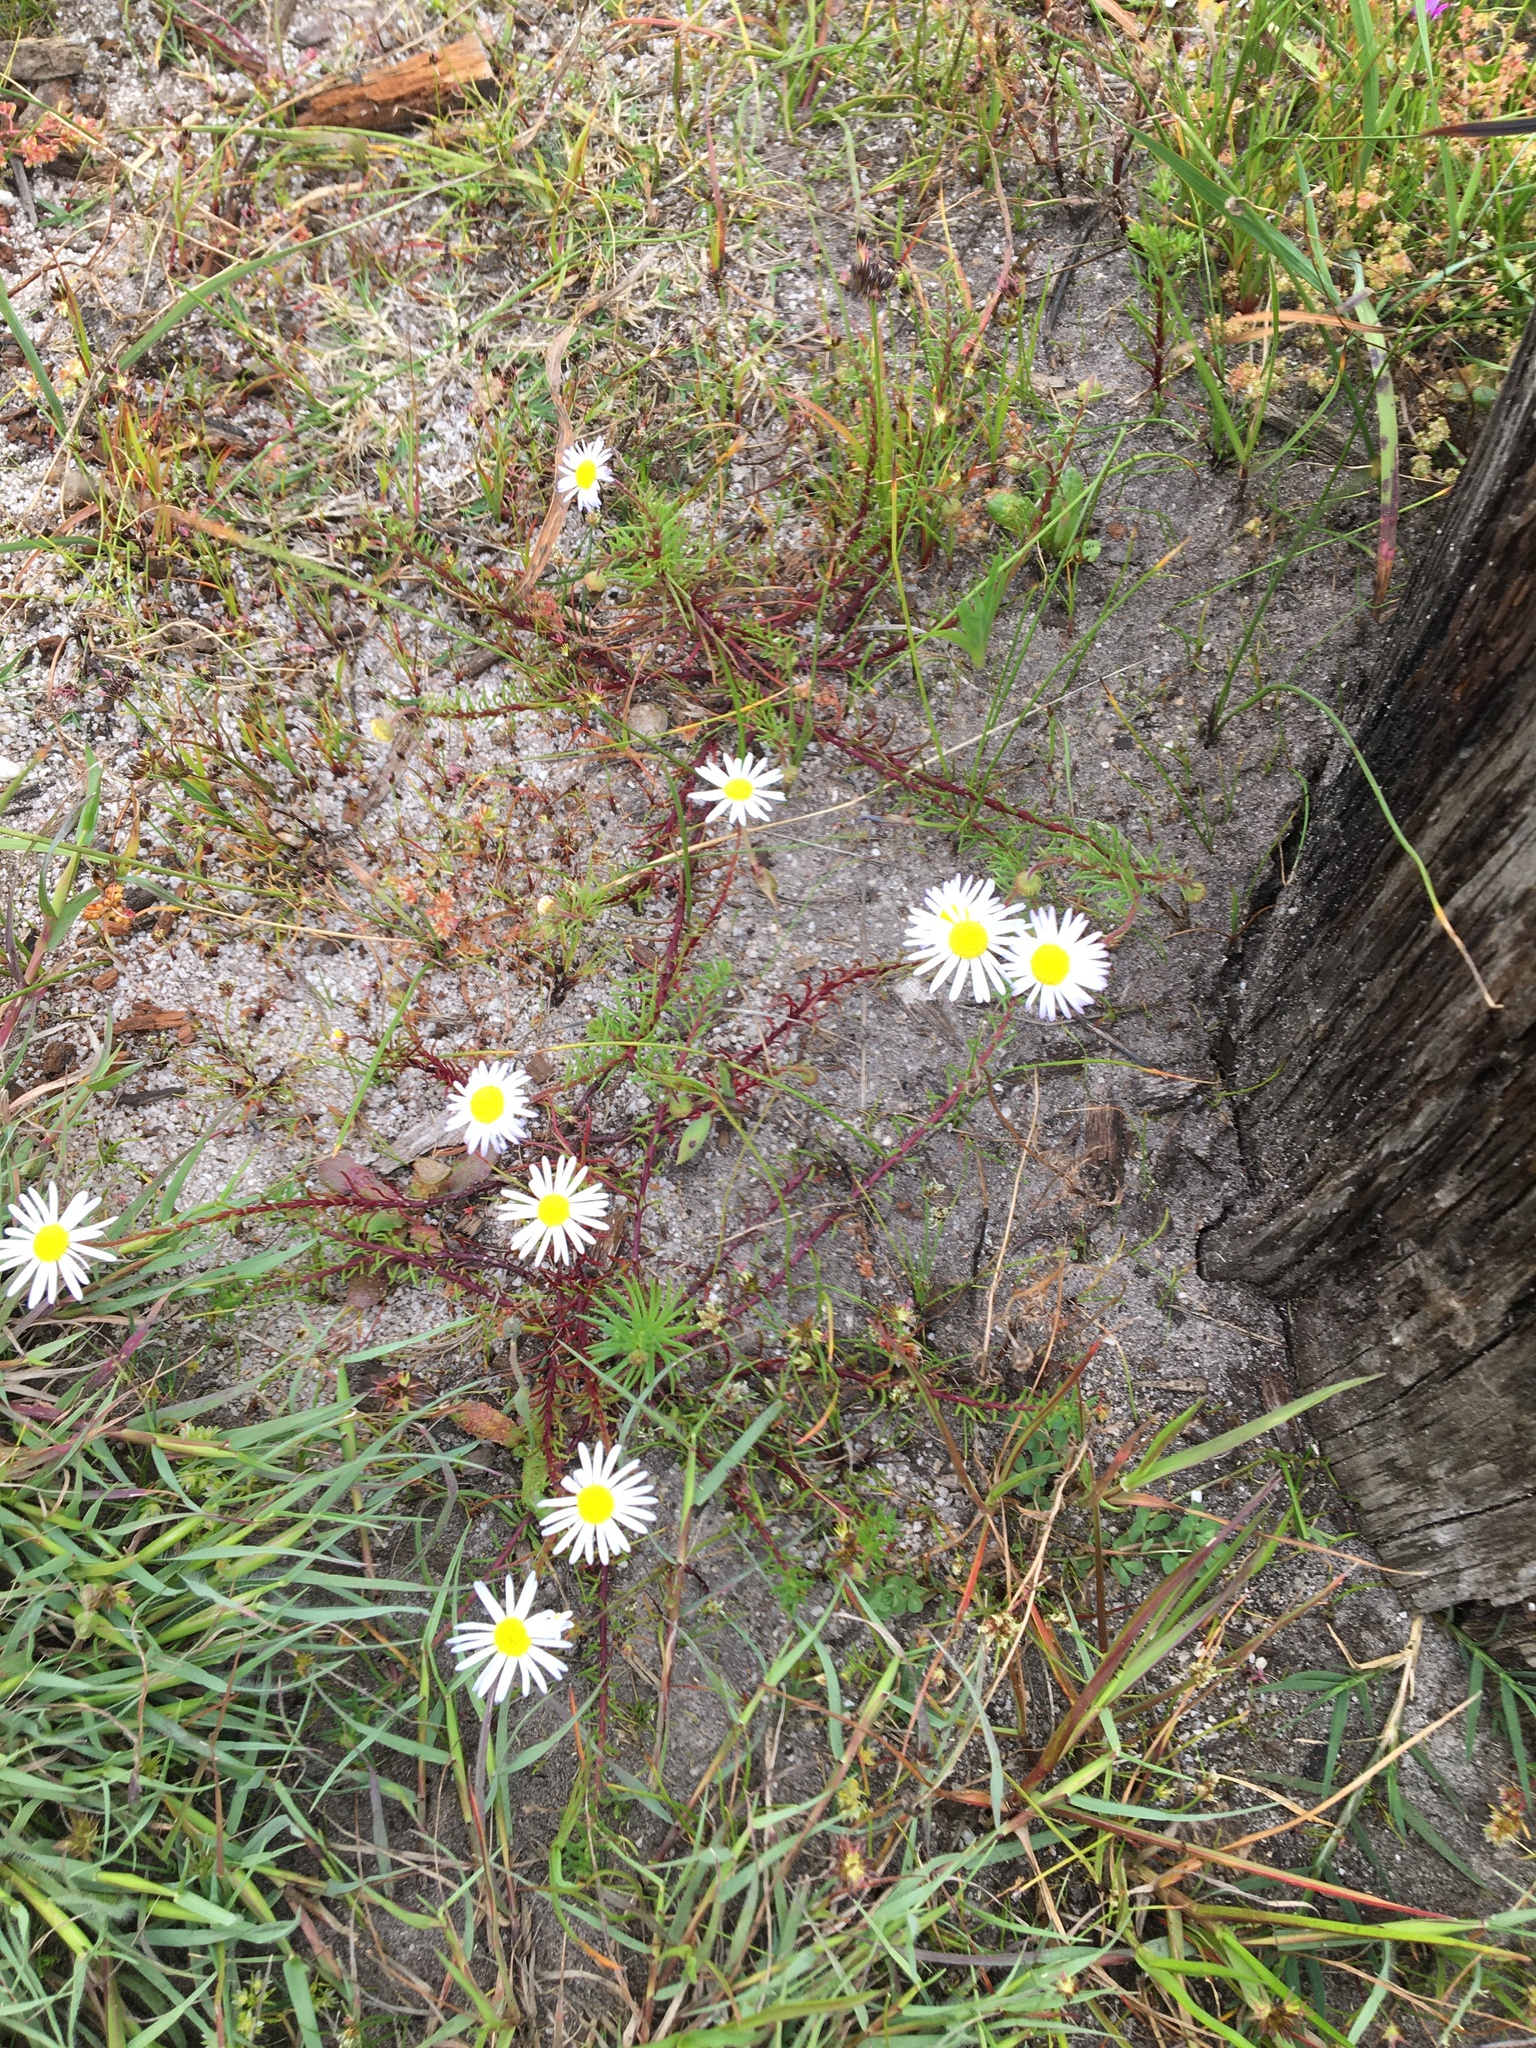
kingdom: Plantae
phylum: Tracheophyta
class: Magnoliopsida
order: Asterales
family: Asteraceae
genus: Felicia
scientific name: Felicia tenella
